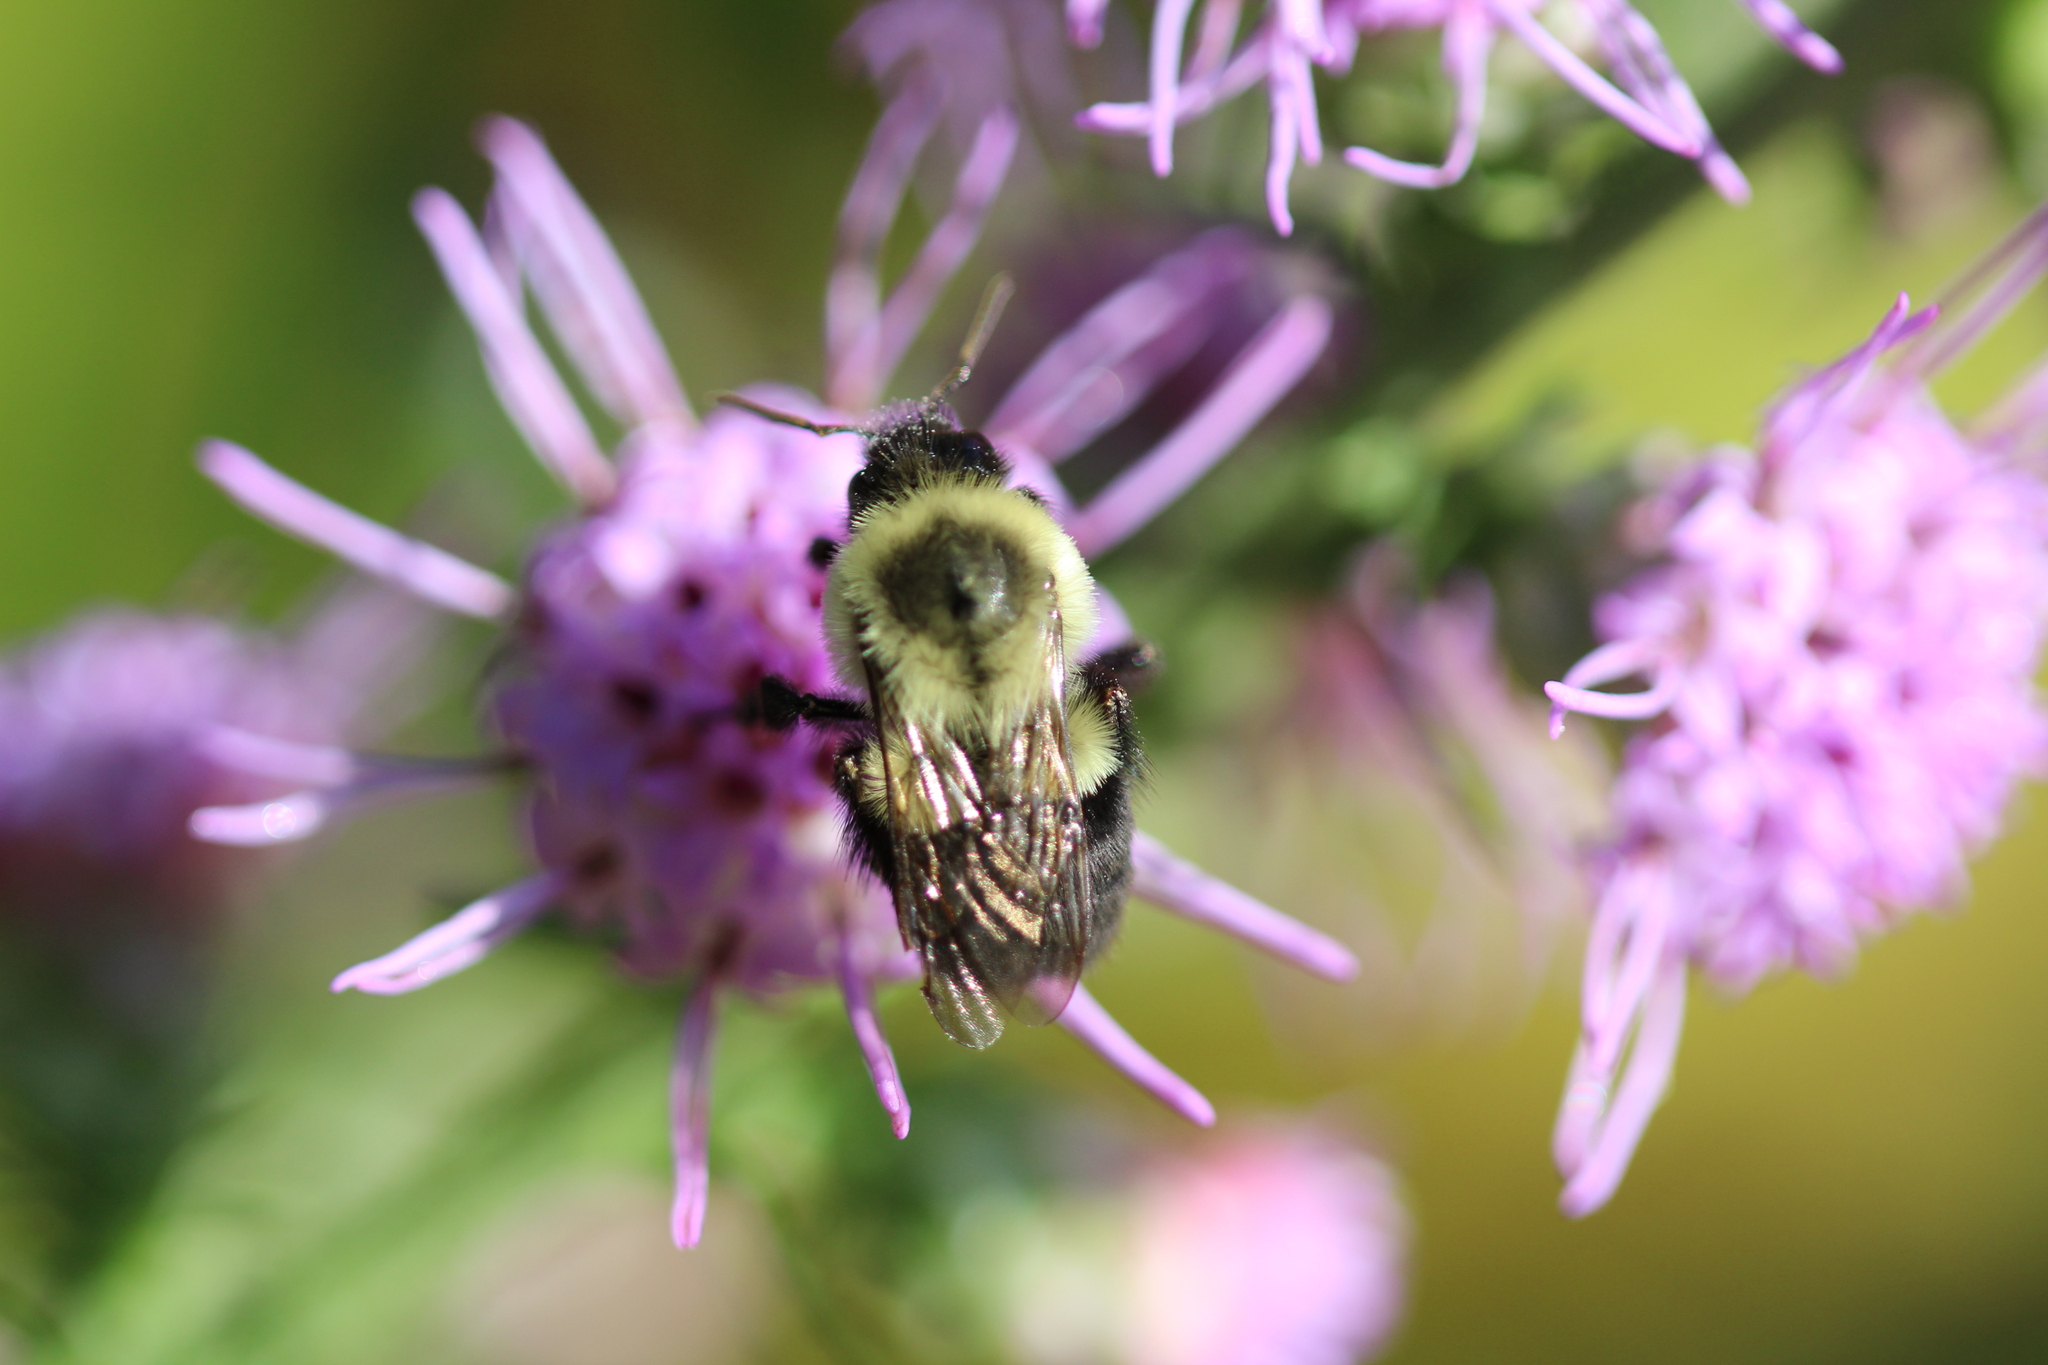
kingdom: Animalia
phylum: Arthropoda
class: Insecta
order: Hymenoptera
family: Apidae
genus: Bombus
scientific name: Bombus impatiens
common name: Common eastern bumble bee
